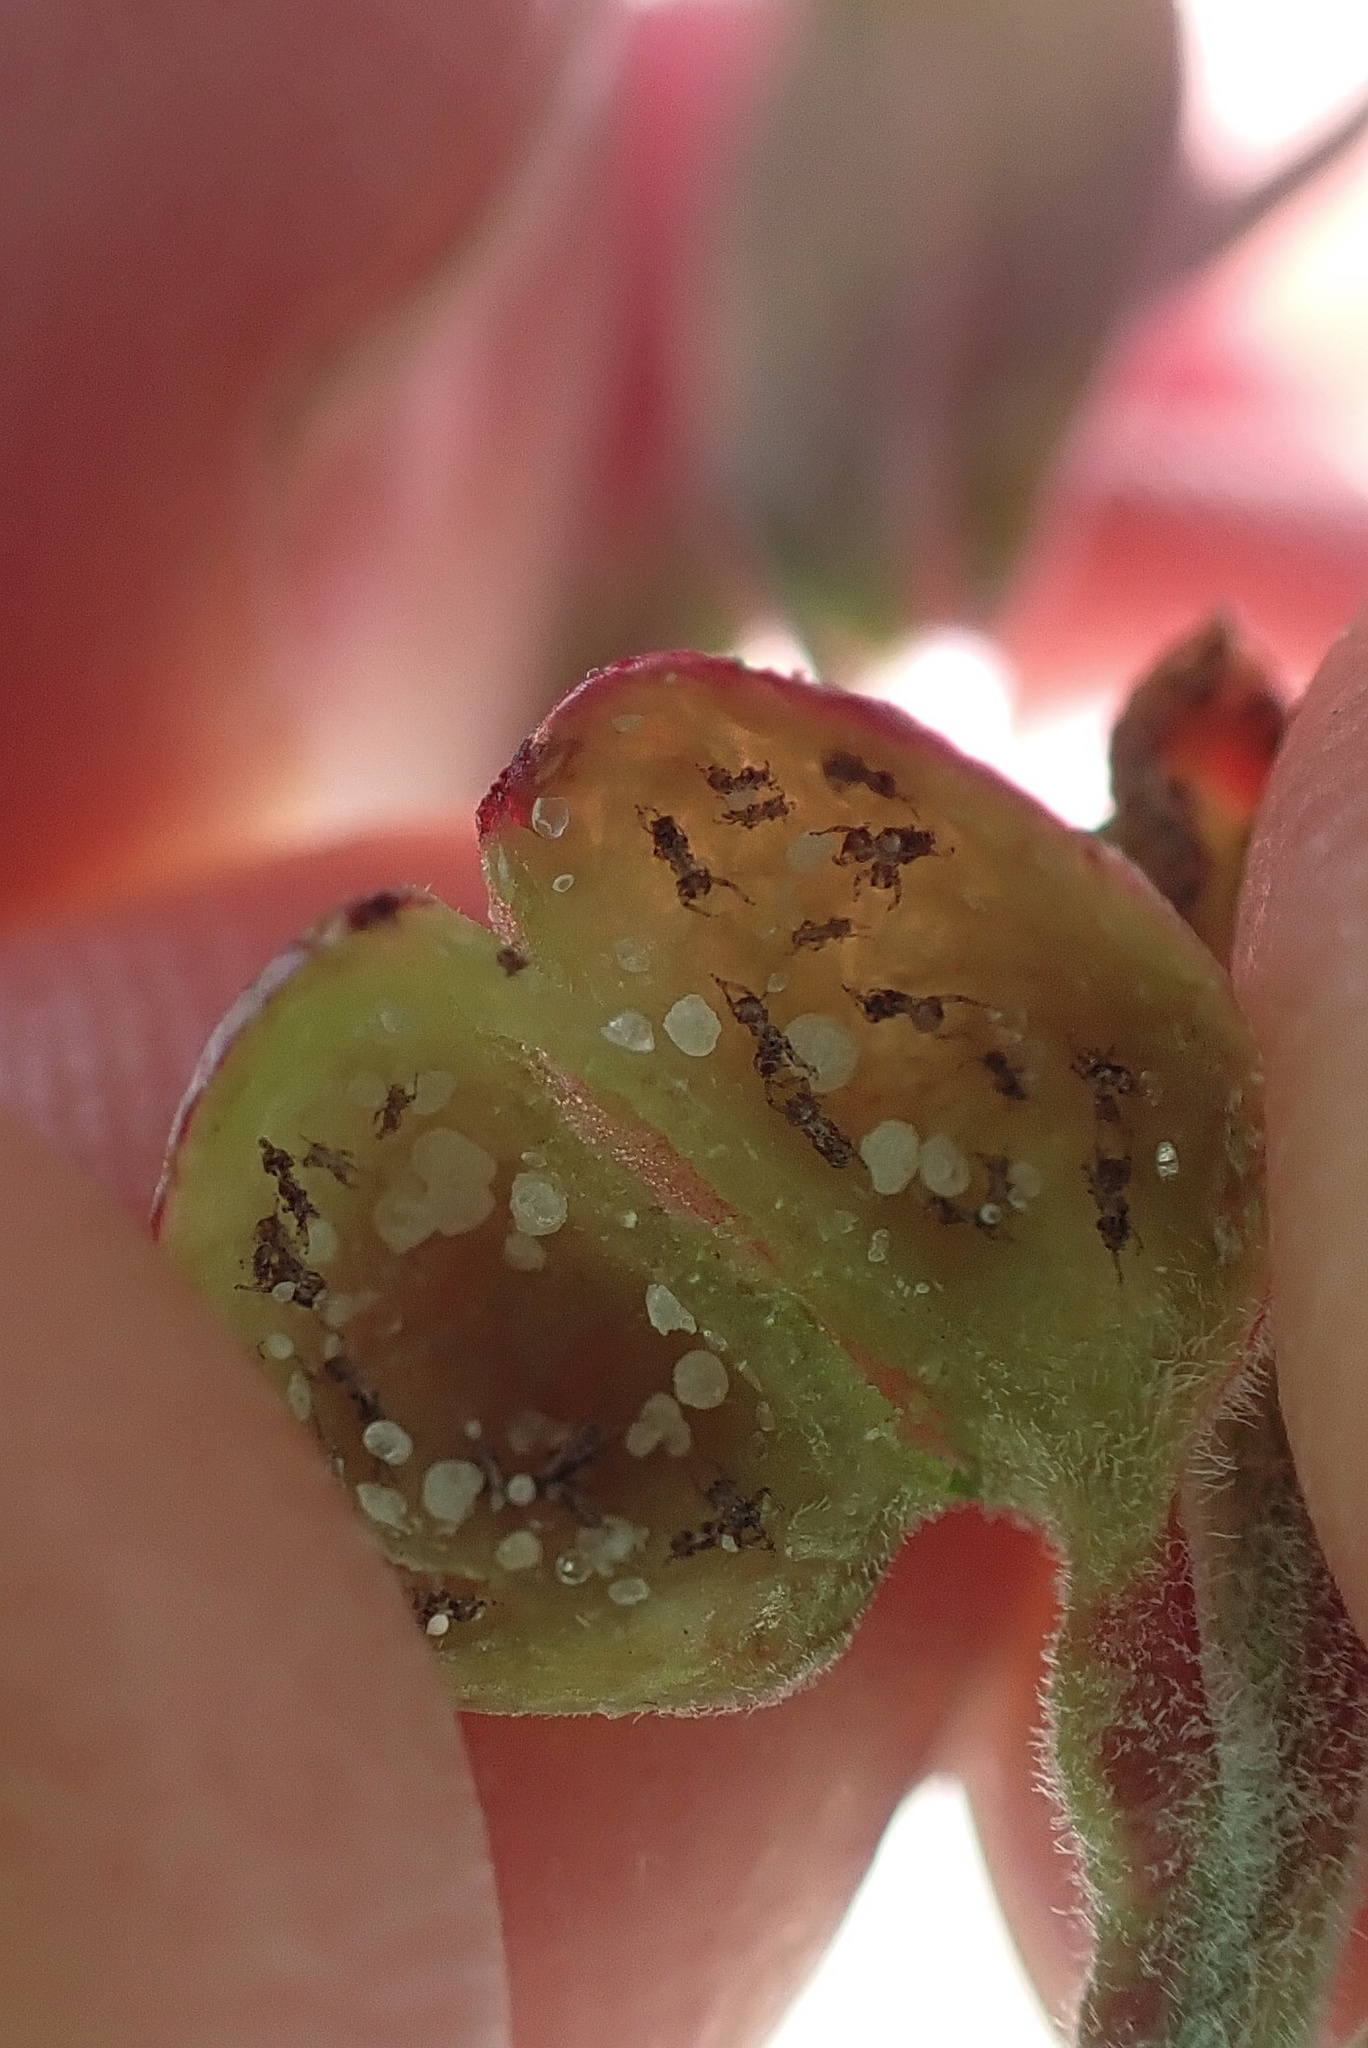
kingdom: Animalia
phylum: Arthropoda
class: Insecta
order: Hemiptera
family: Aphididae
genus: Tamalia
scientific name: Tamalia coweni
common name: Manzanita leafgall aphid
